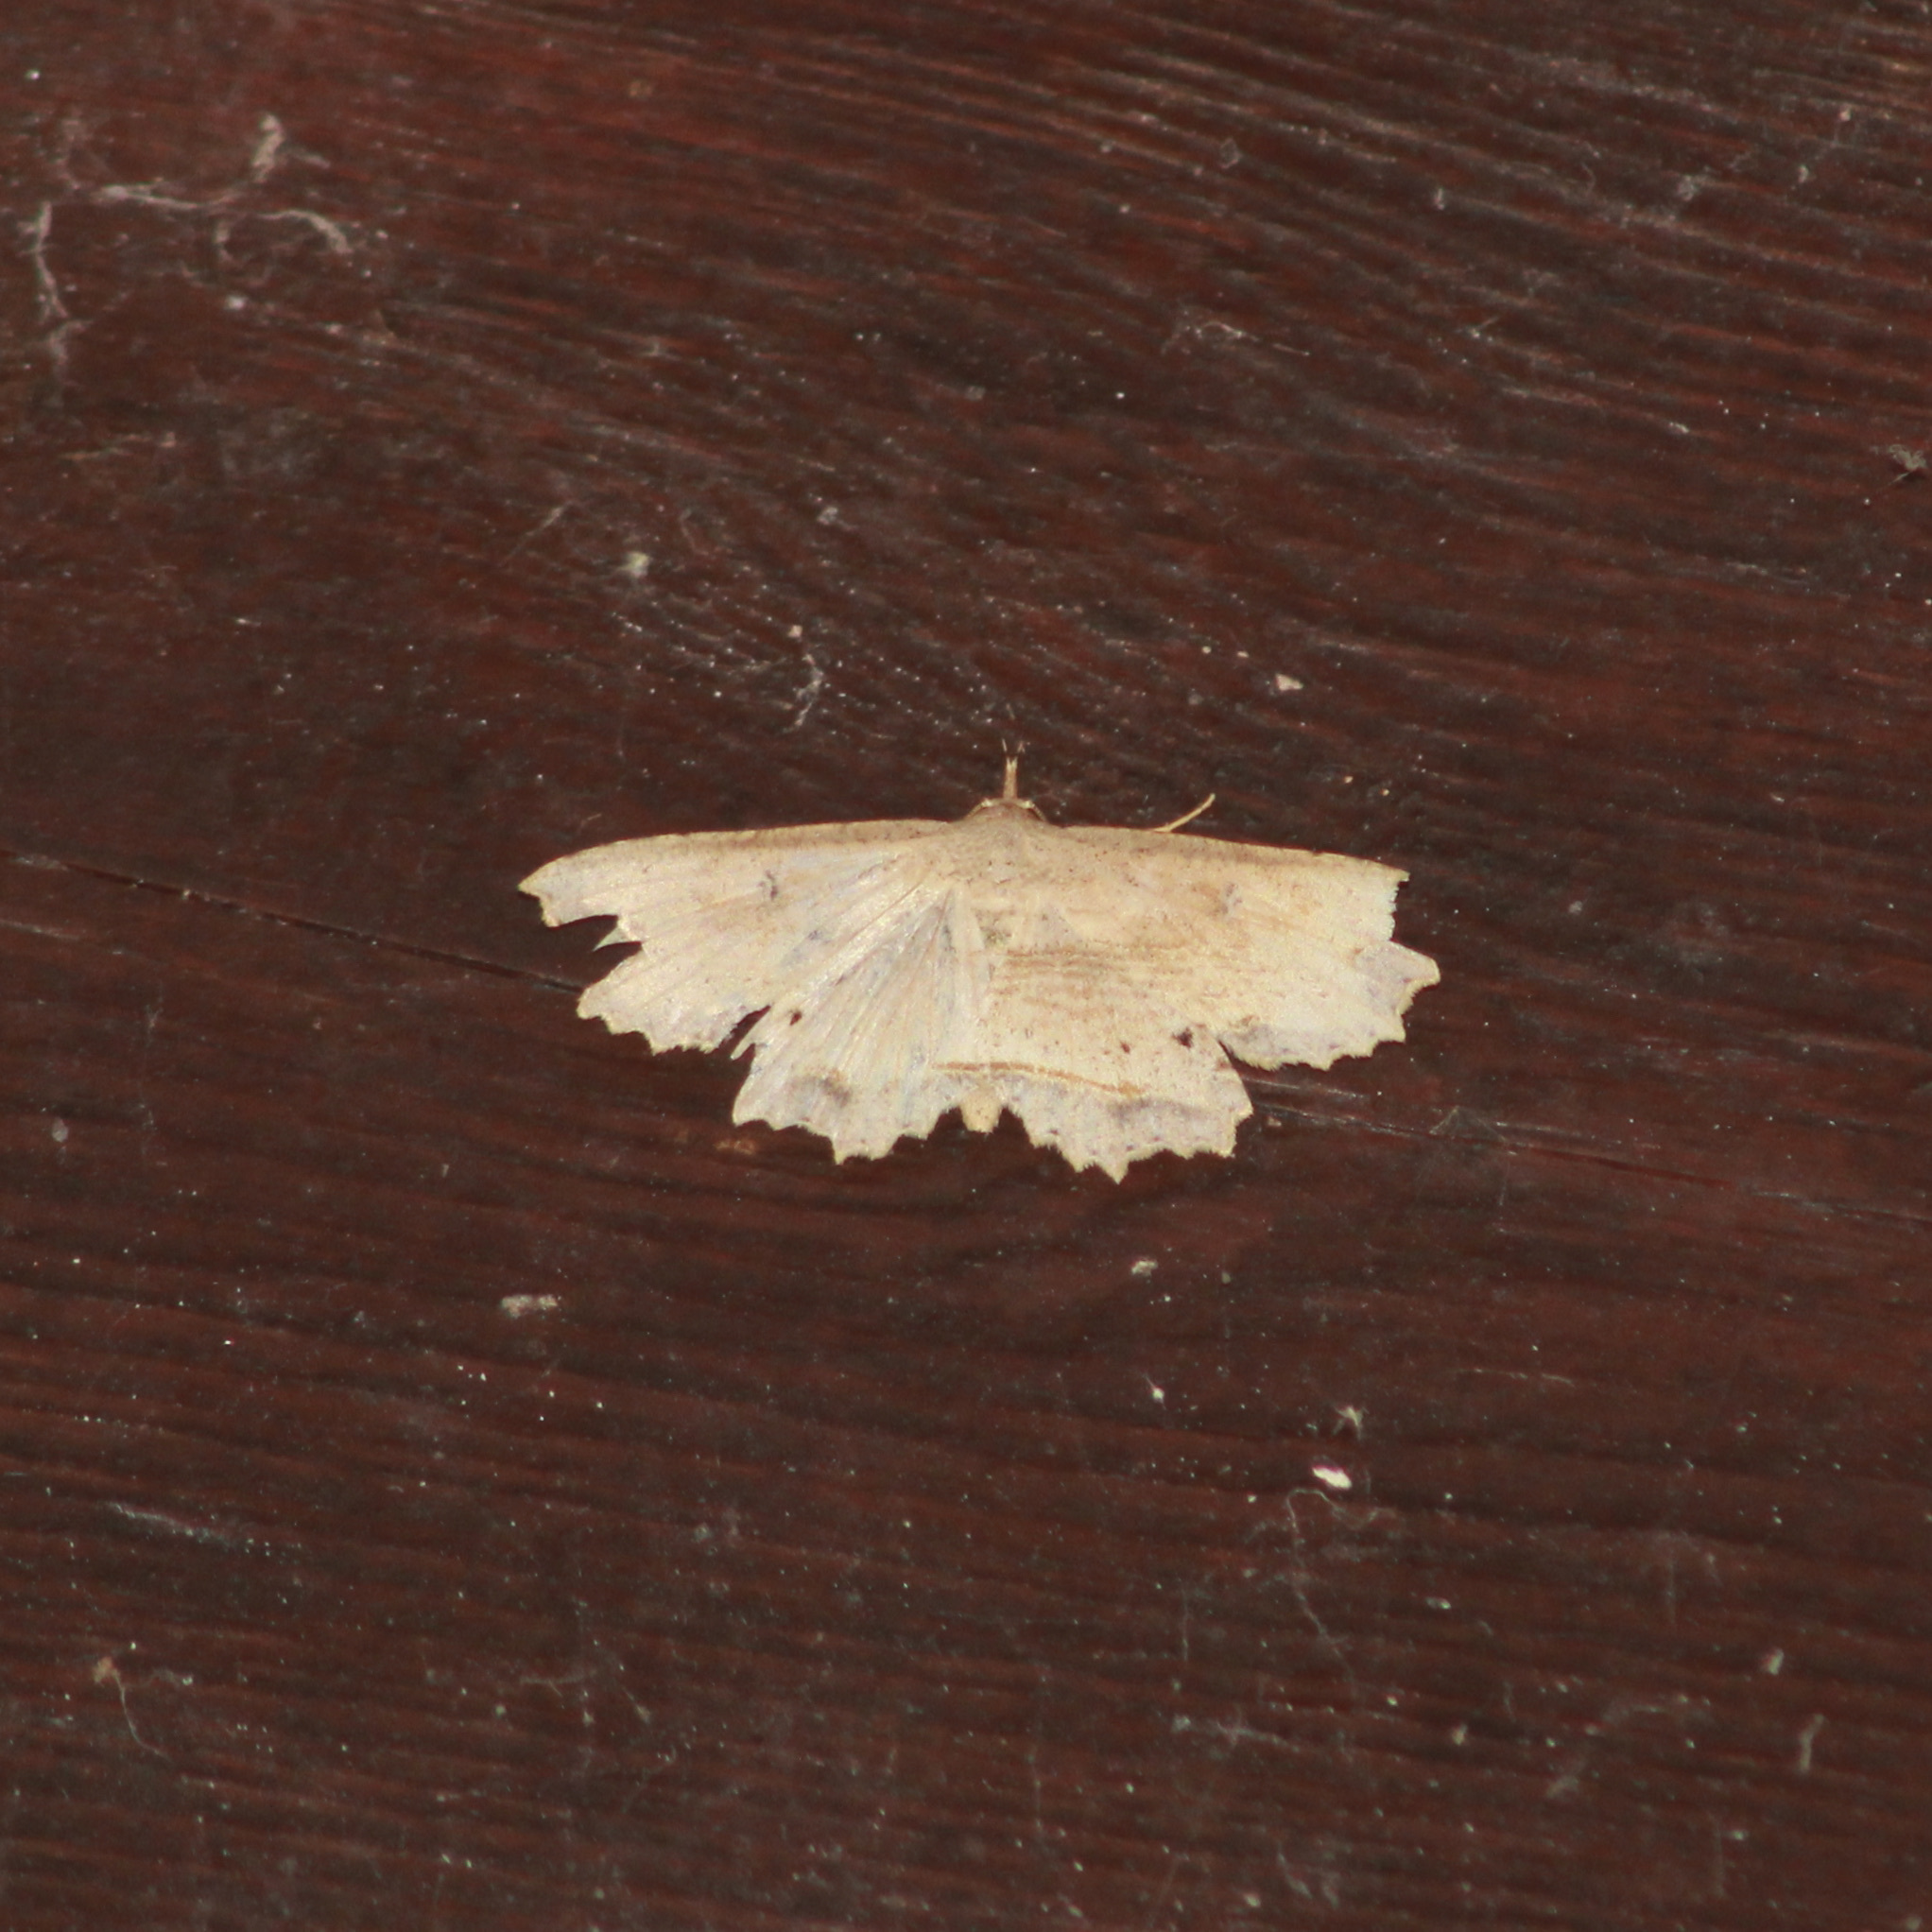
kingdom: Animalia
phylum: Arthropoda
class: Insecta
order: Lepidoptera
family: Erebidae
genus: Oroscopa
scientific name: Oroscopa abluta
